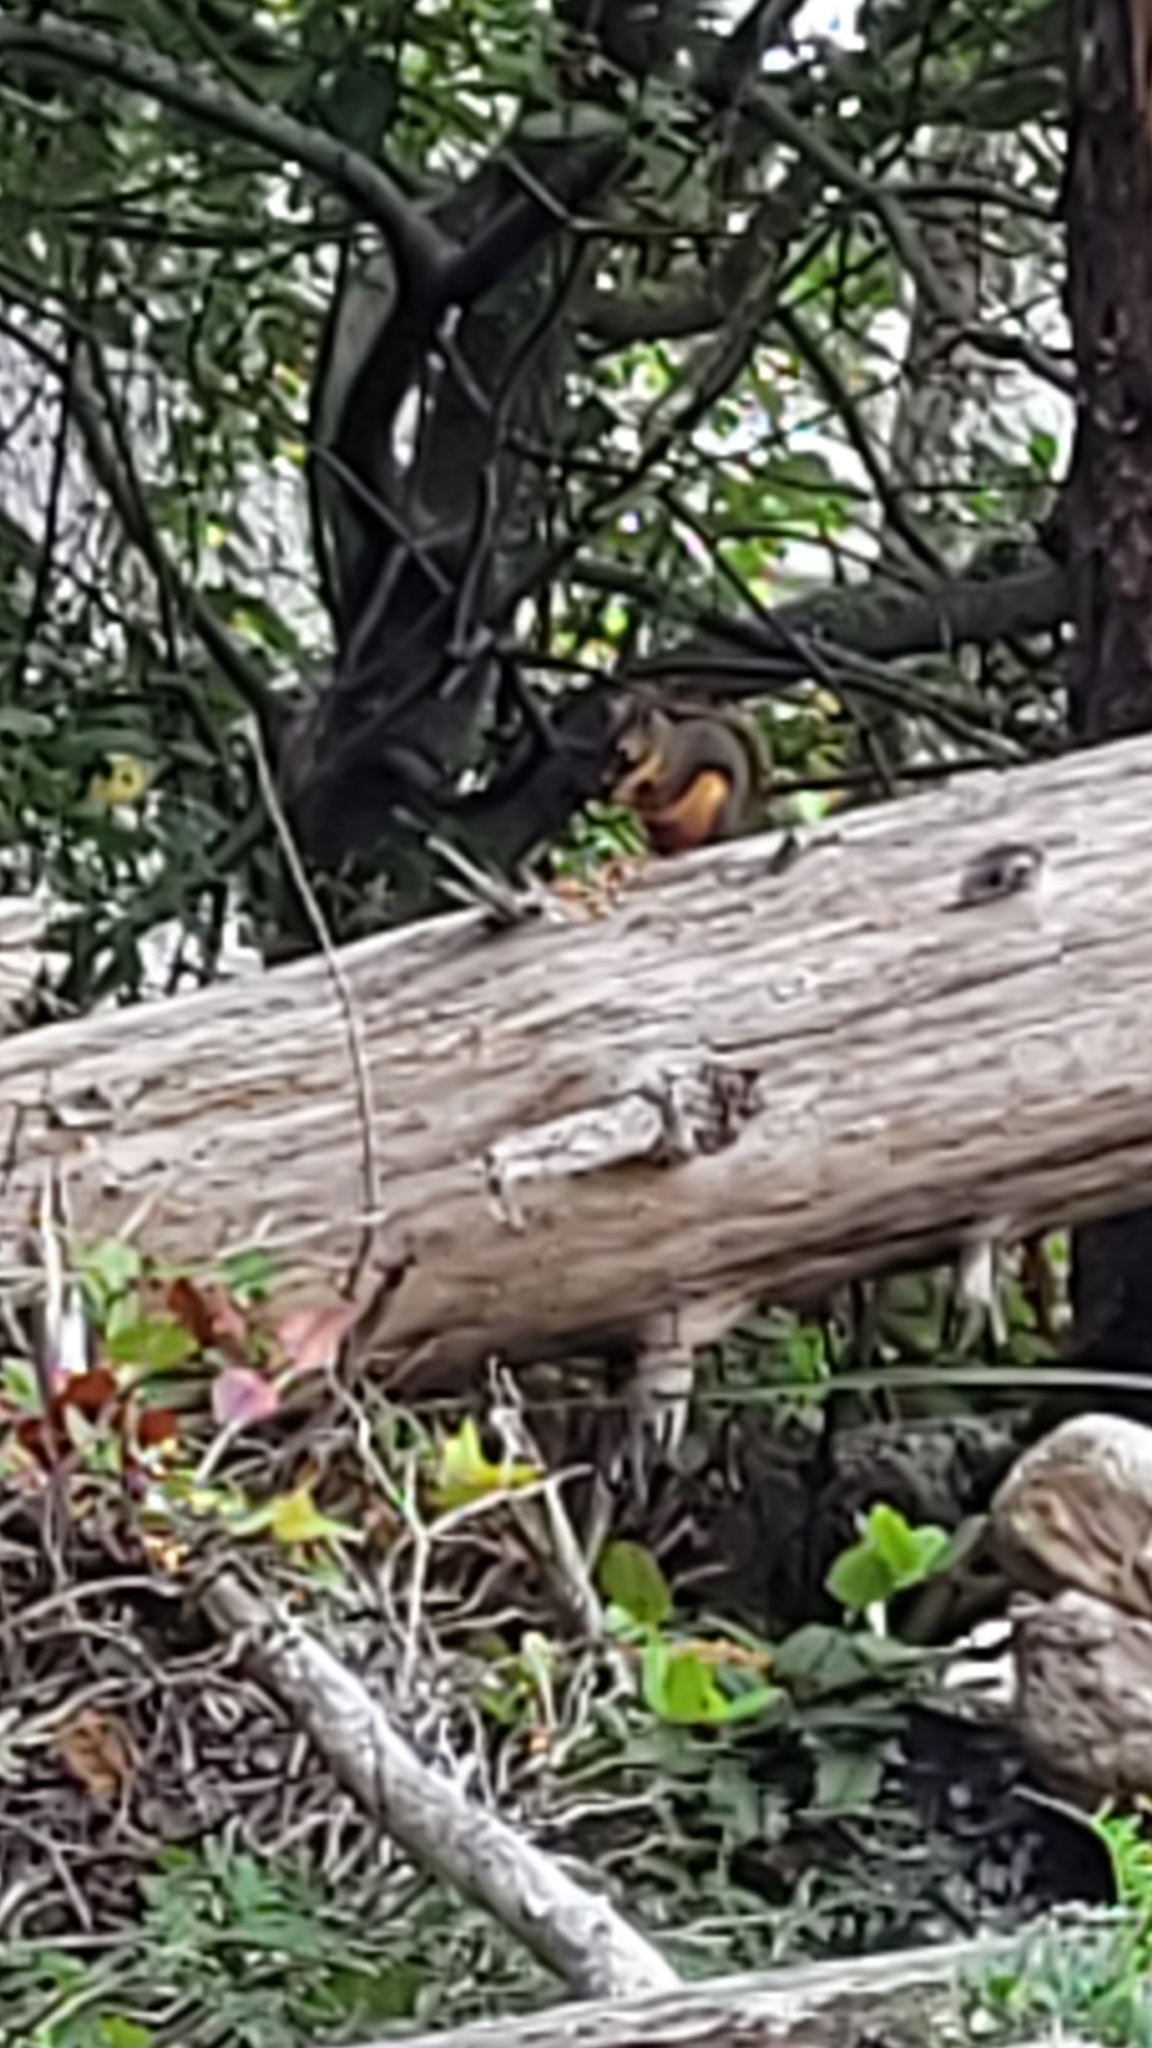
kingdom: Animalia
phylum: Chordata
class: Mammalia
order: Rodentia
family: Sciuridae
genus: Tamiasciurus
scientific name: Tamiasciurus douglasii
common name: Douglas's squirrel
